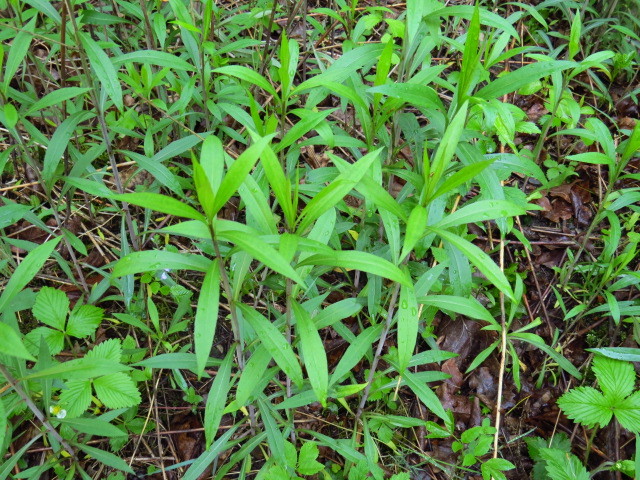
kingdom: Plantae
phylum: Tracheophyta
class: Magnoliopsida
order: Asterales
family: Asteraceae
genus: Solidago
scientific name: Solidago gigantea
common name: Giant goldenrod
